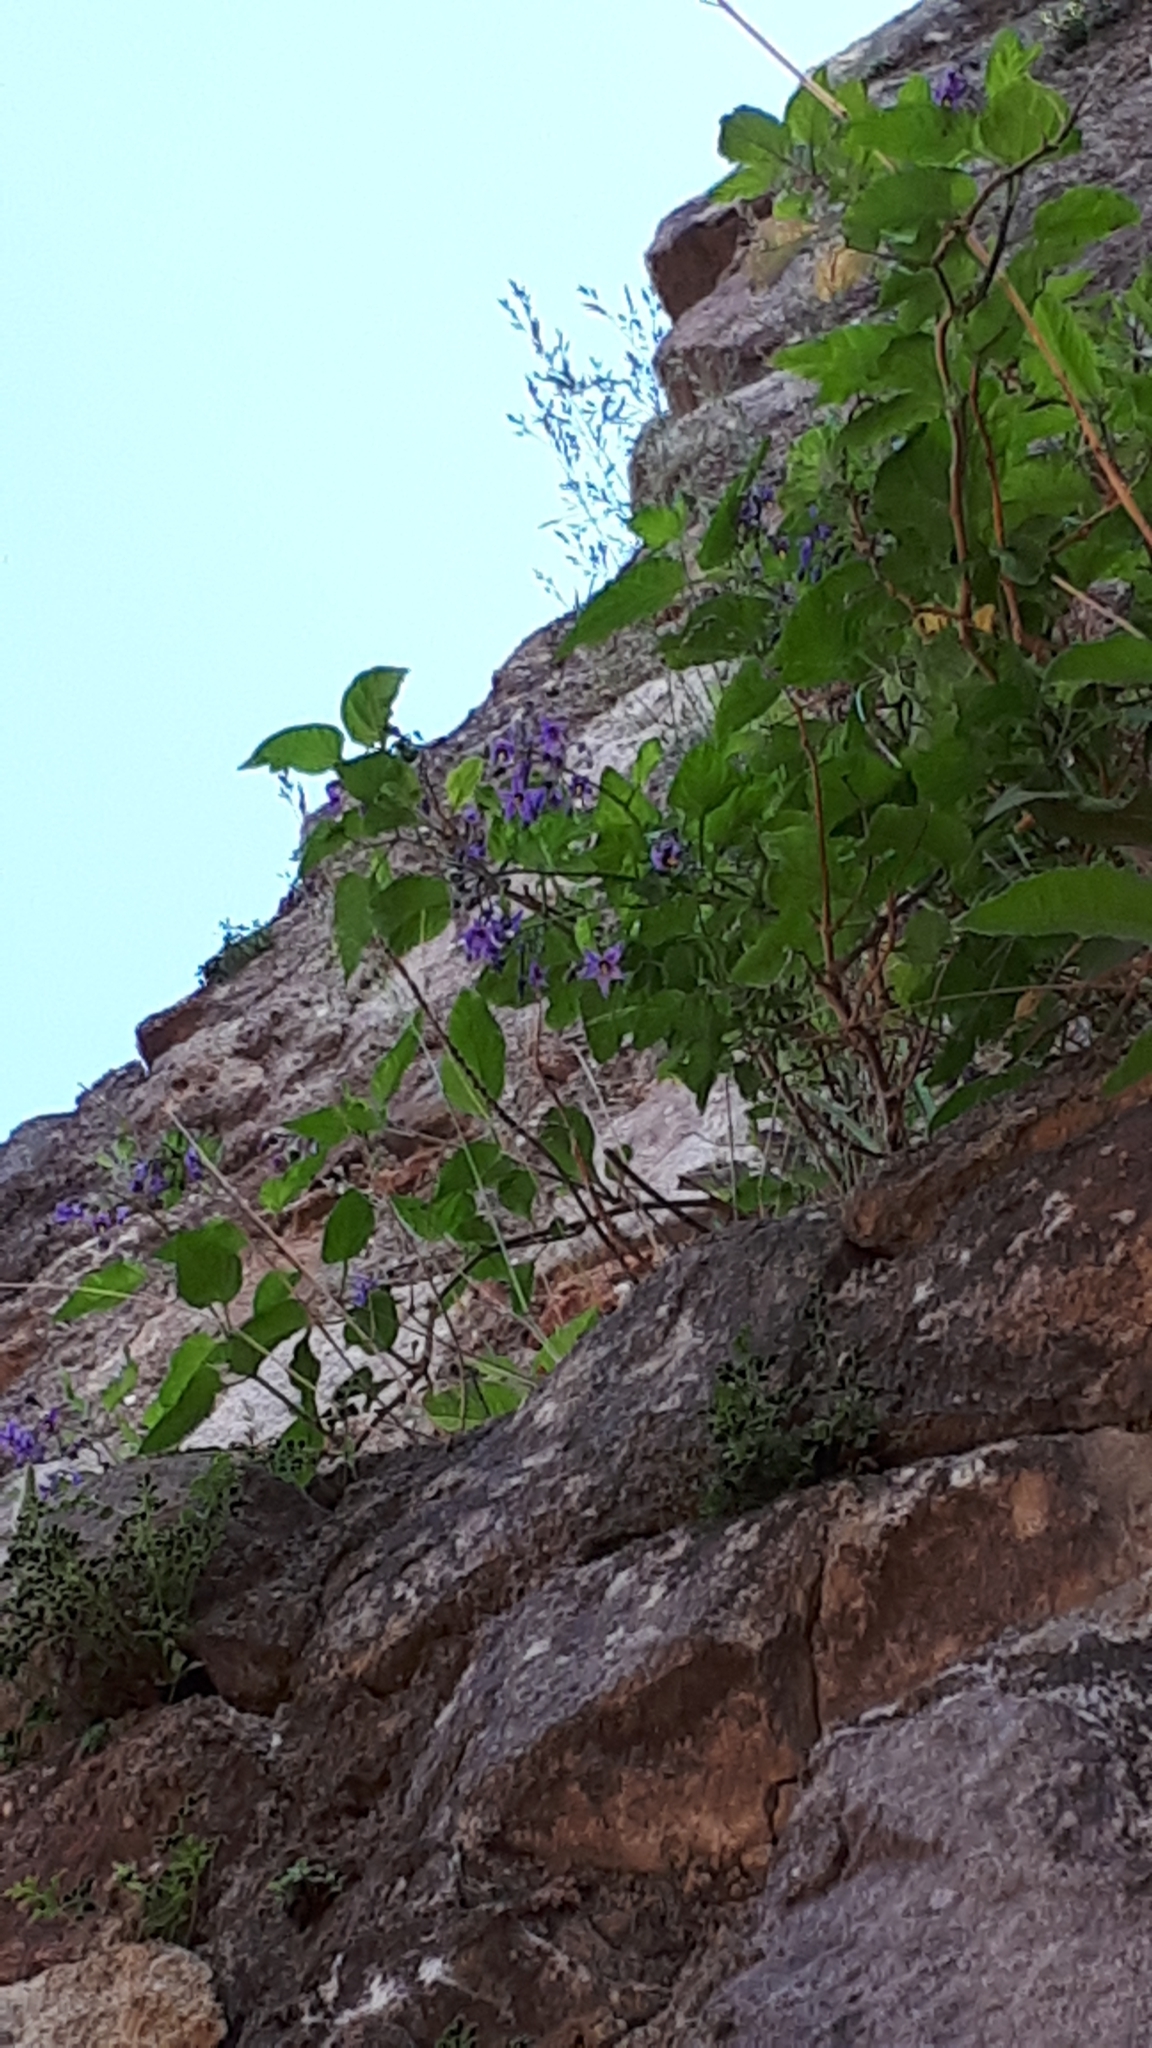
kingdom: Plantae
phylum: Tracheophyta
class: Magnoliopsida
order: Solanales
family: Solanaceae
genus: Solanum
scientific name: Solanum dulcamara
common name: Climbing nightshade
